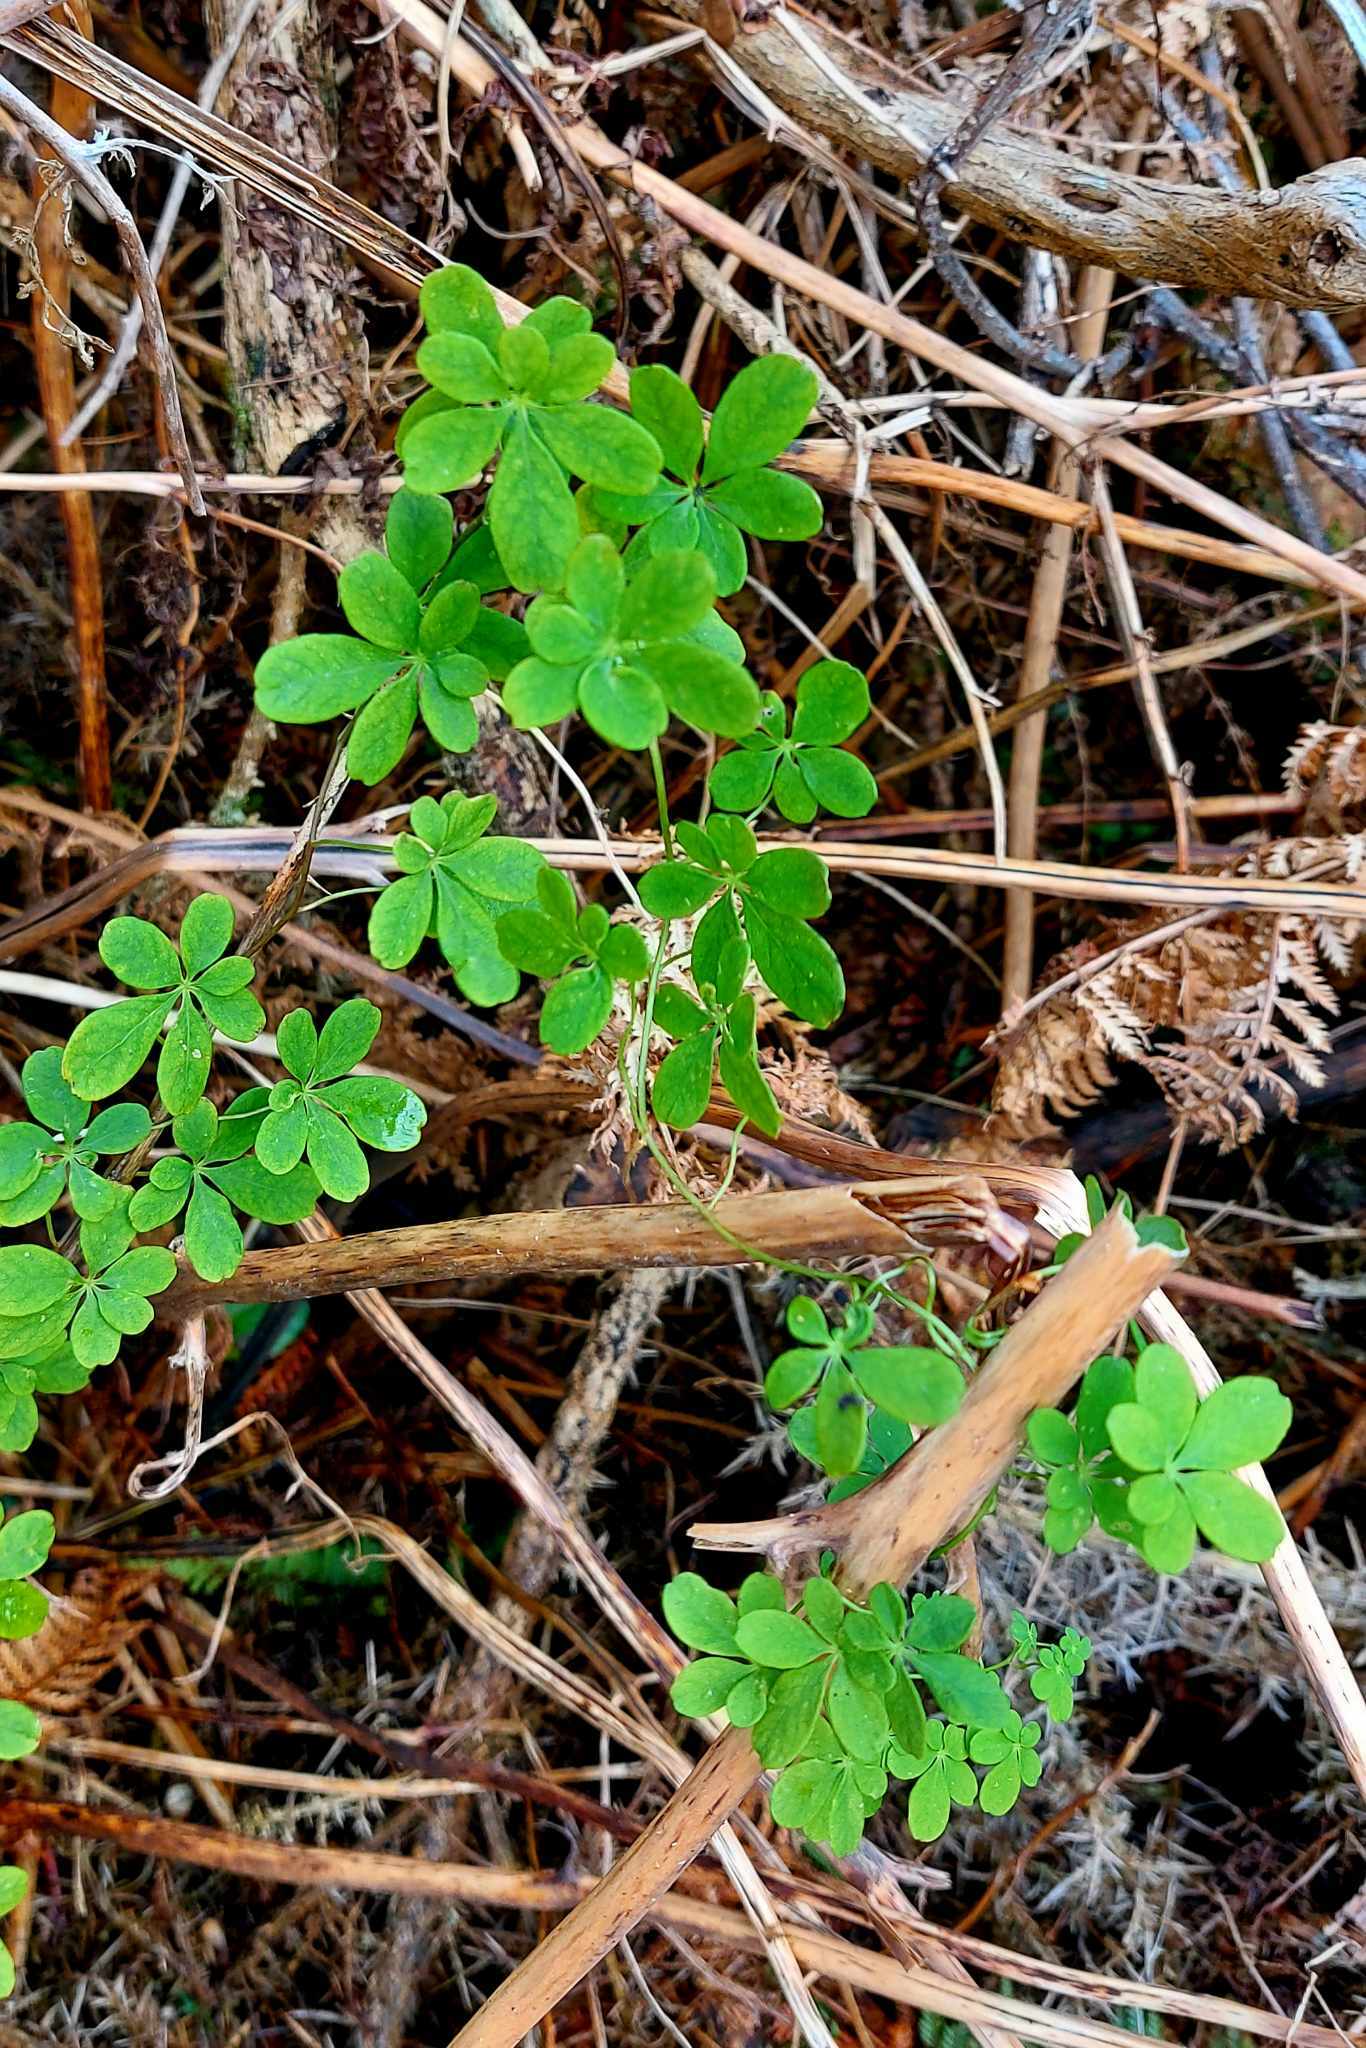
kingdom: Plantae
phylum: Tracheophyta
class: Magnoliopsida
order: Brassicales
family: Tropaeolaceae
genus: Tropaeolum
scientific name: Tropaeolum speciosum
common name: Flame nasturtium
